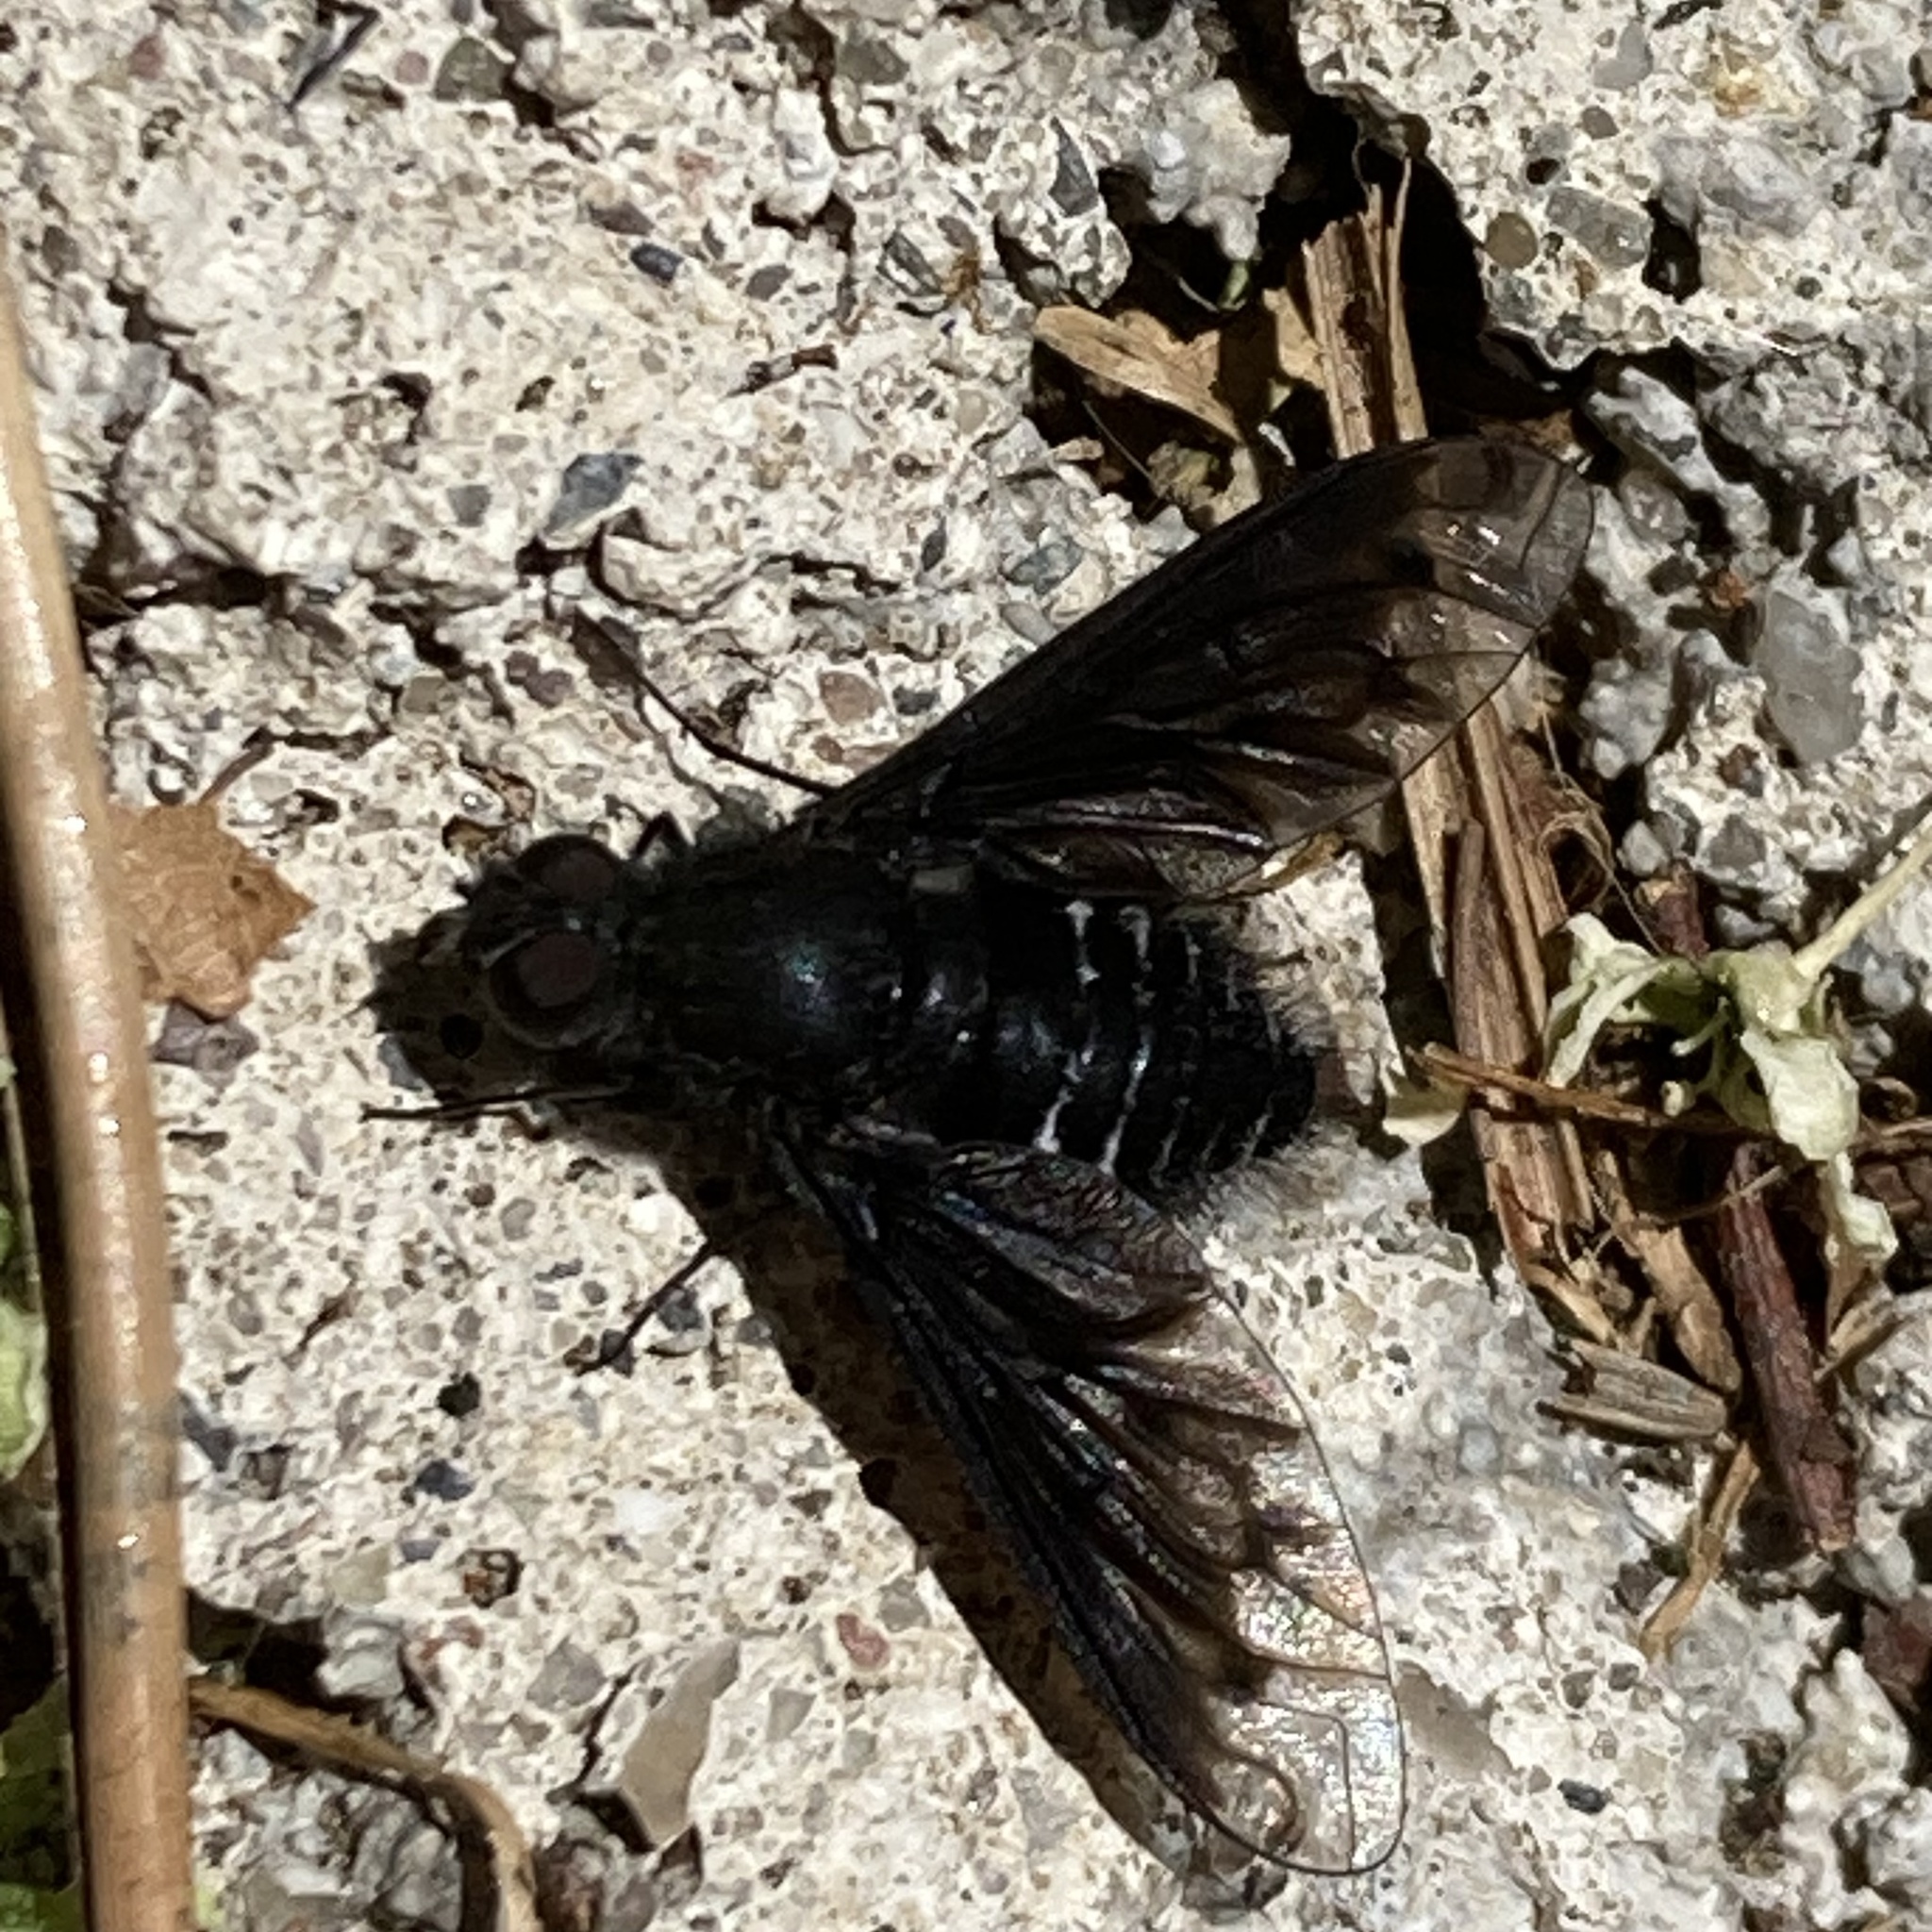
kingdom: Animalia
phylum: Arthropoda
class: Insecta
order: Diptera
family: Bombyliidae
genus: Anthrax
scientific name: Anthrax anthrax
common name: Anthracite bee-fly
